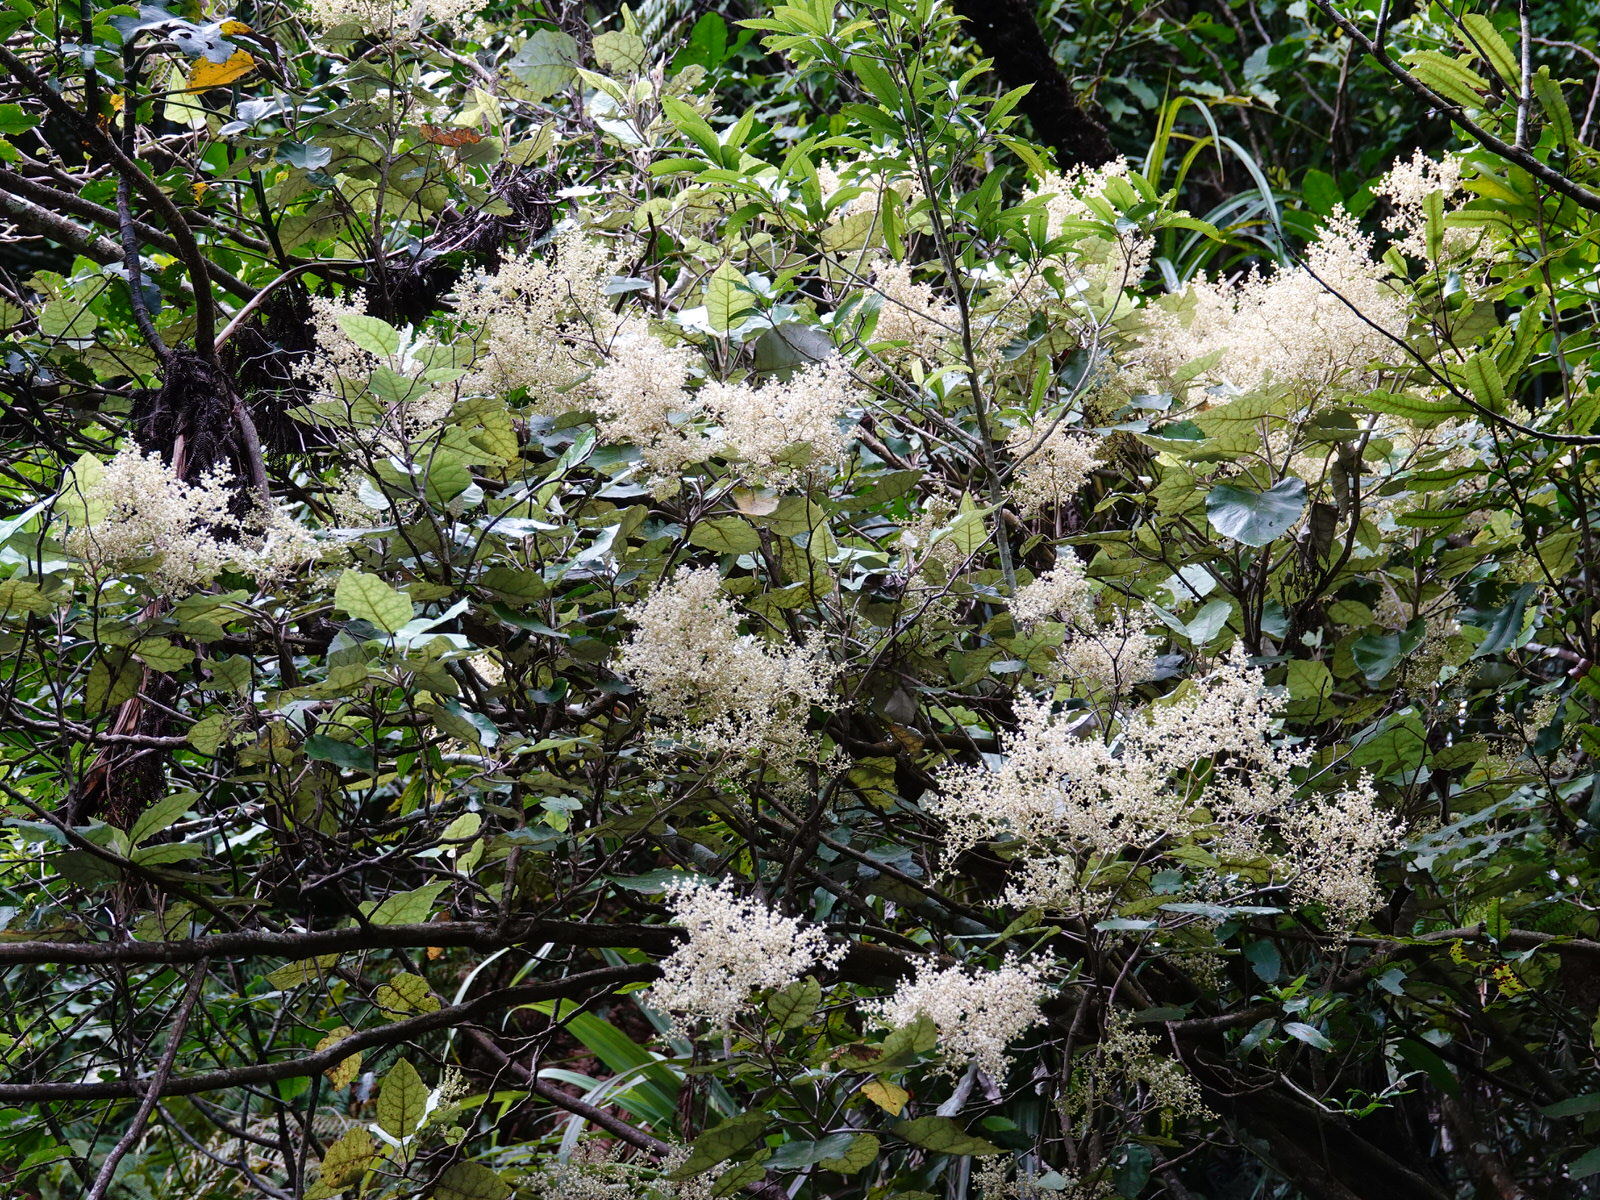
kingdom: Plantae
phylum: Tracheophyta
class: Magnoliopsida
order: Asterales
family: Asteraceae
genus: Brachyglottis
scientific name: Brachyglottis repanda
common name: Hedge ragwort
